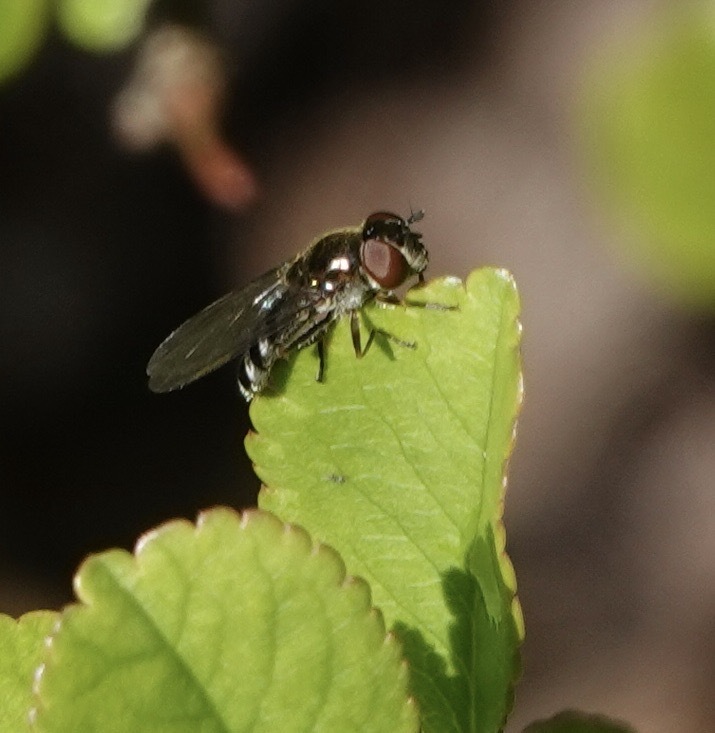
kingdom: Animalia
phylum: Arthropoda
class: Insecta
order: Diptera
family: Syrphidae
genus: Platycheirus
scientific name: Platycheirus albimanus
